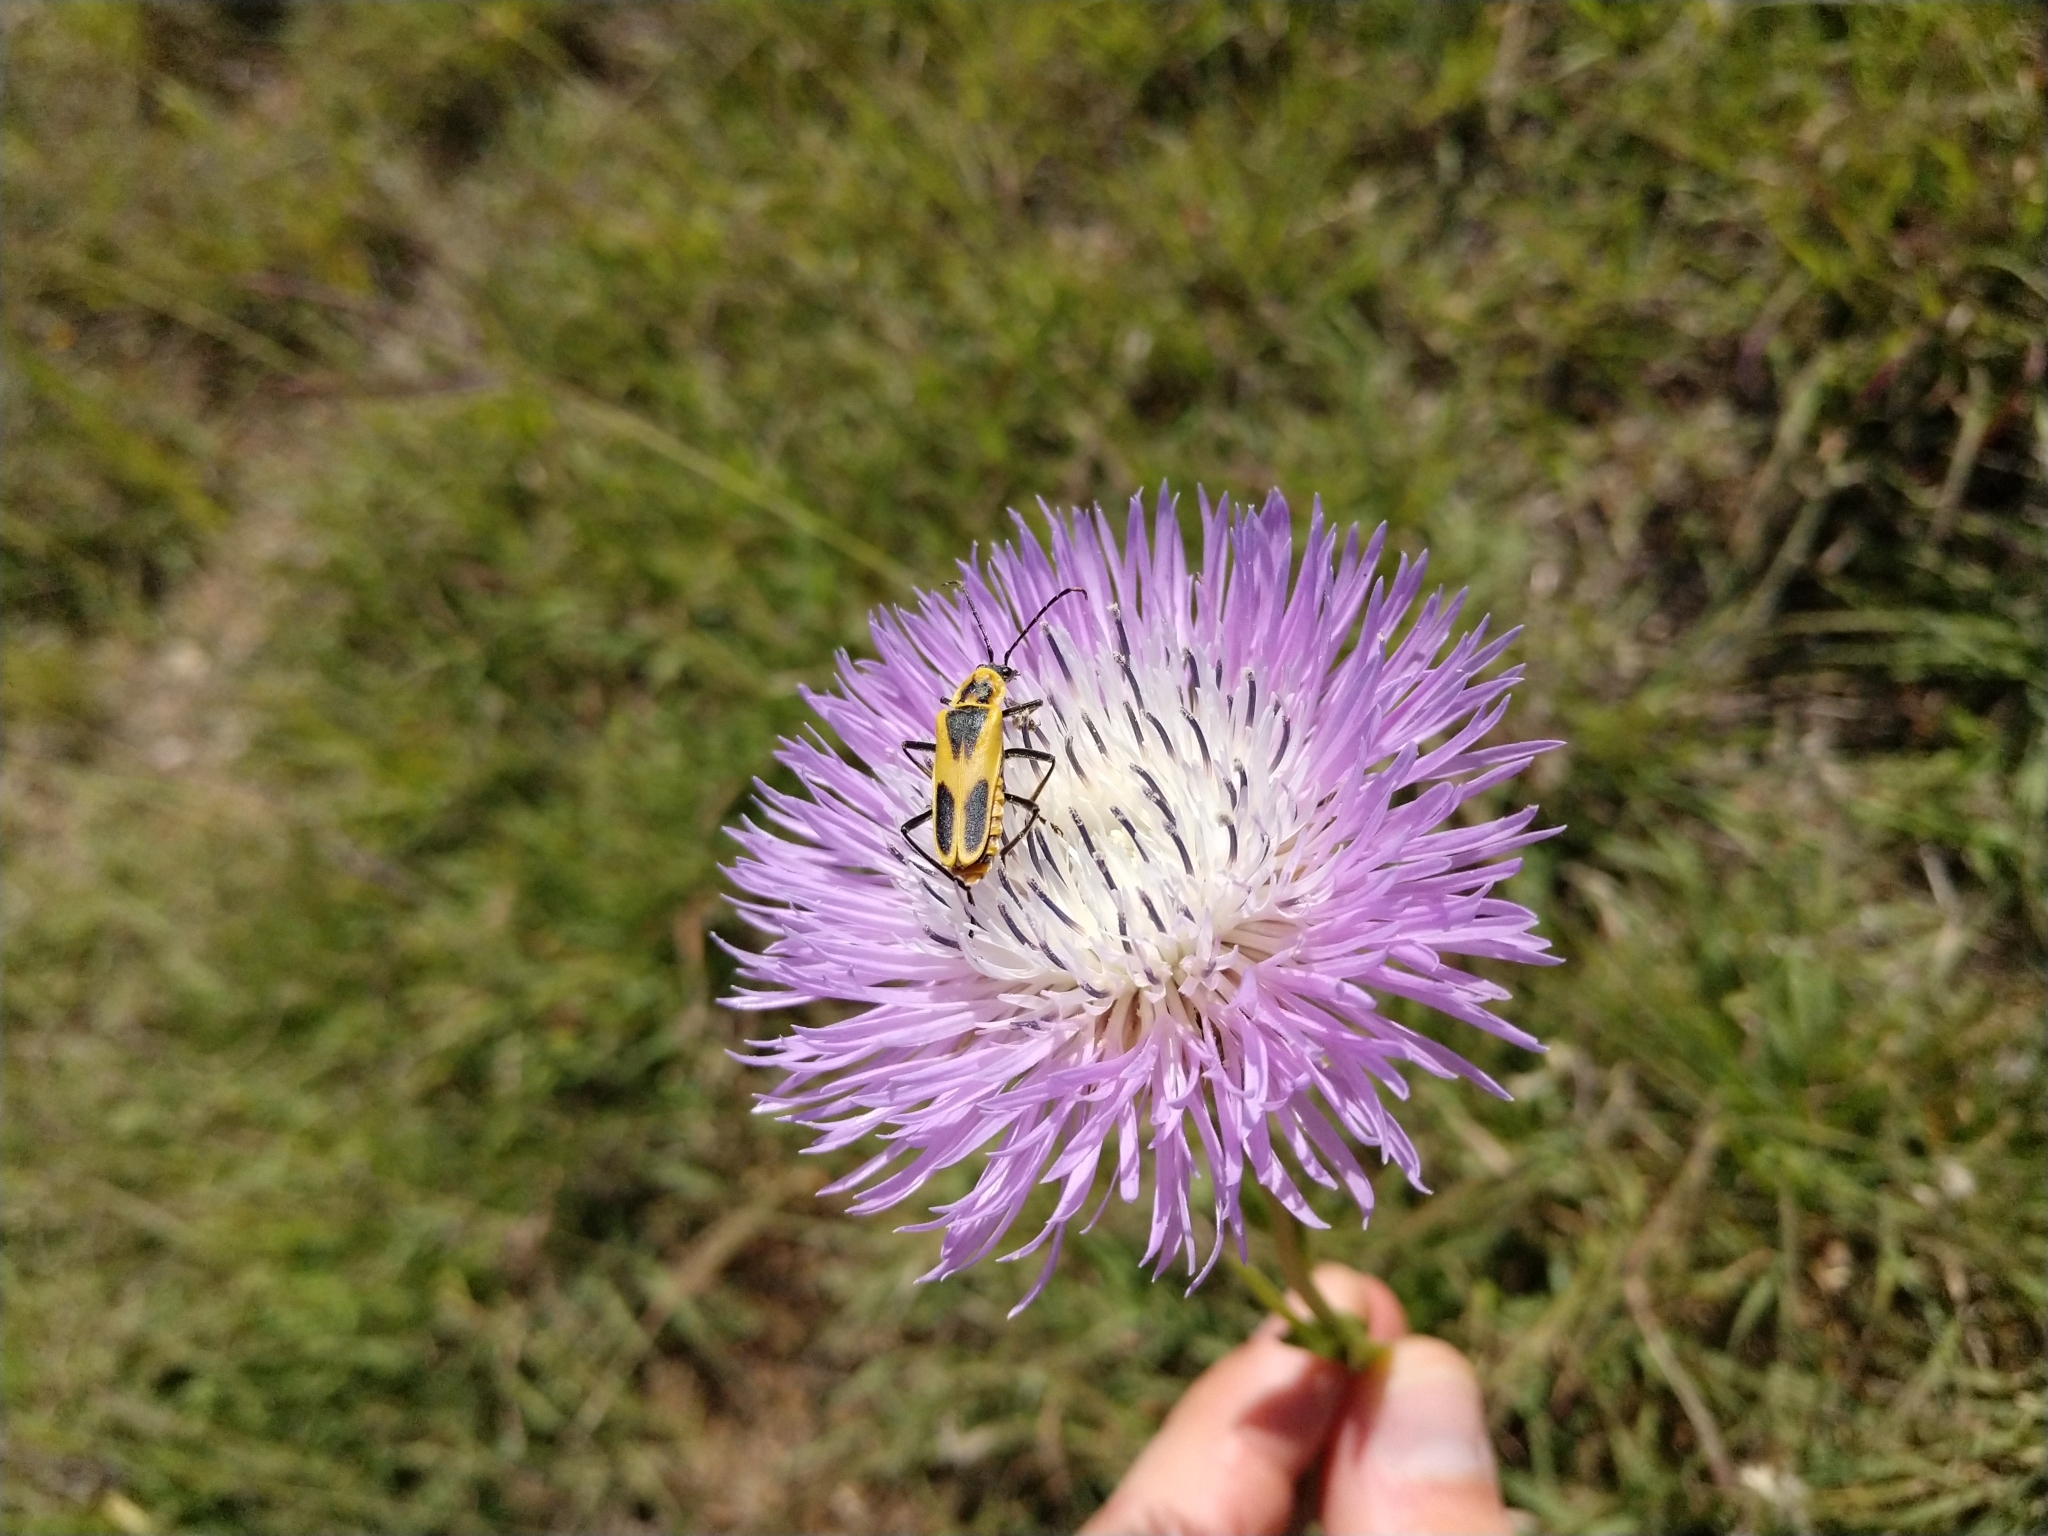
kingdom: Animalia
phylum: Arthropoda
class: Insecta
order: Coleoptera
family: Cantharidae
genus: Chauliognathus
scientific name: Chauliognathus scutellaris
